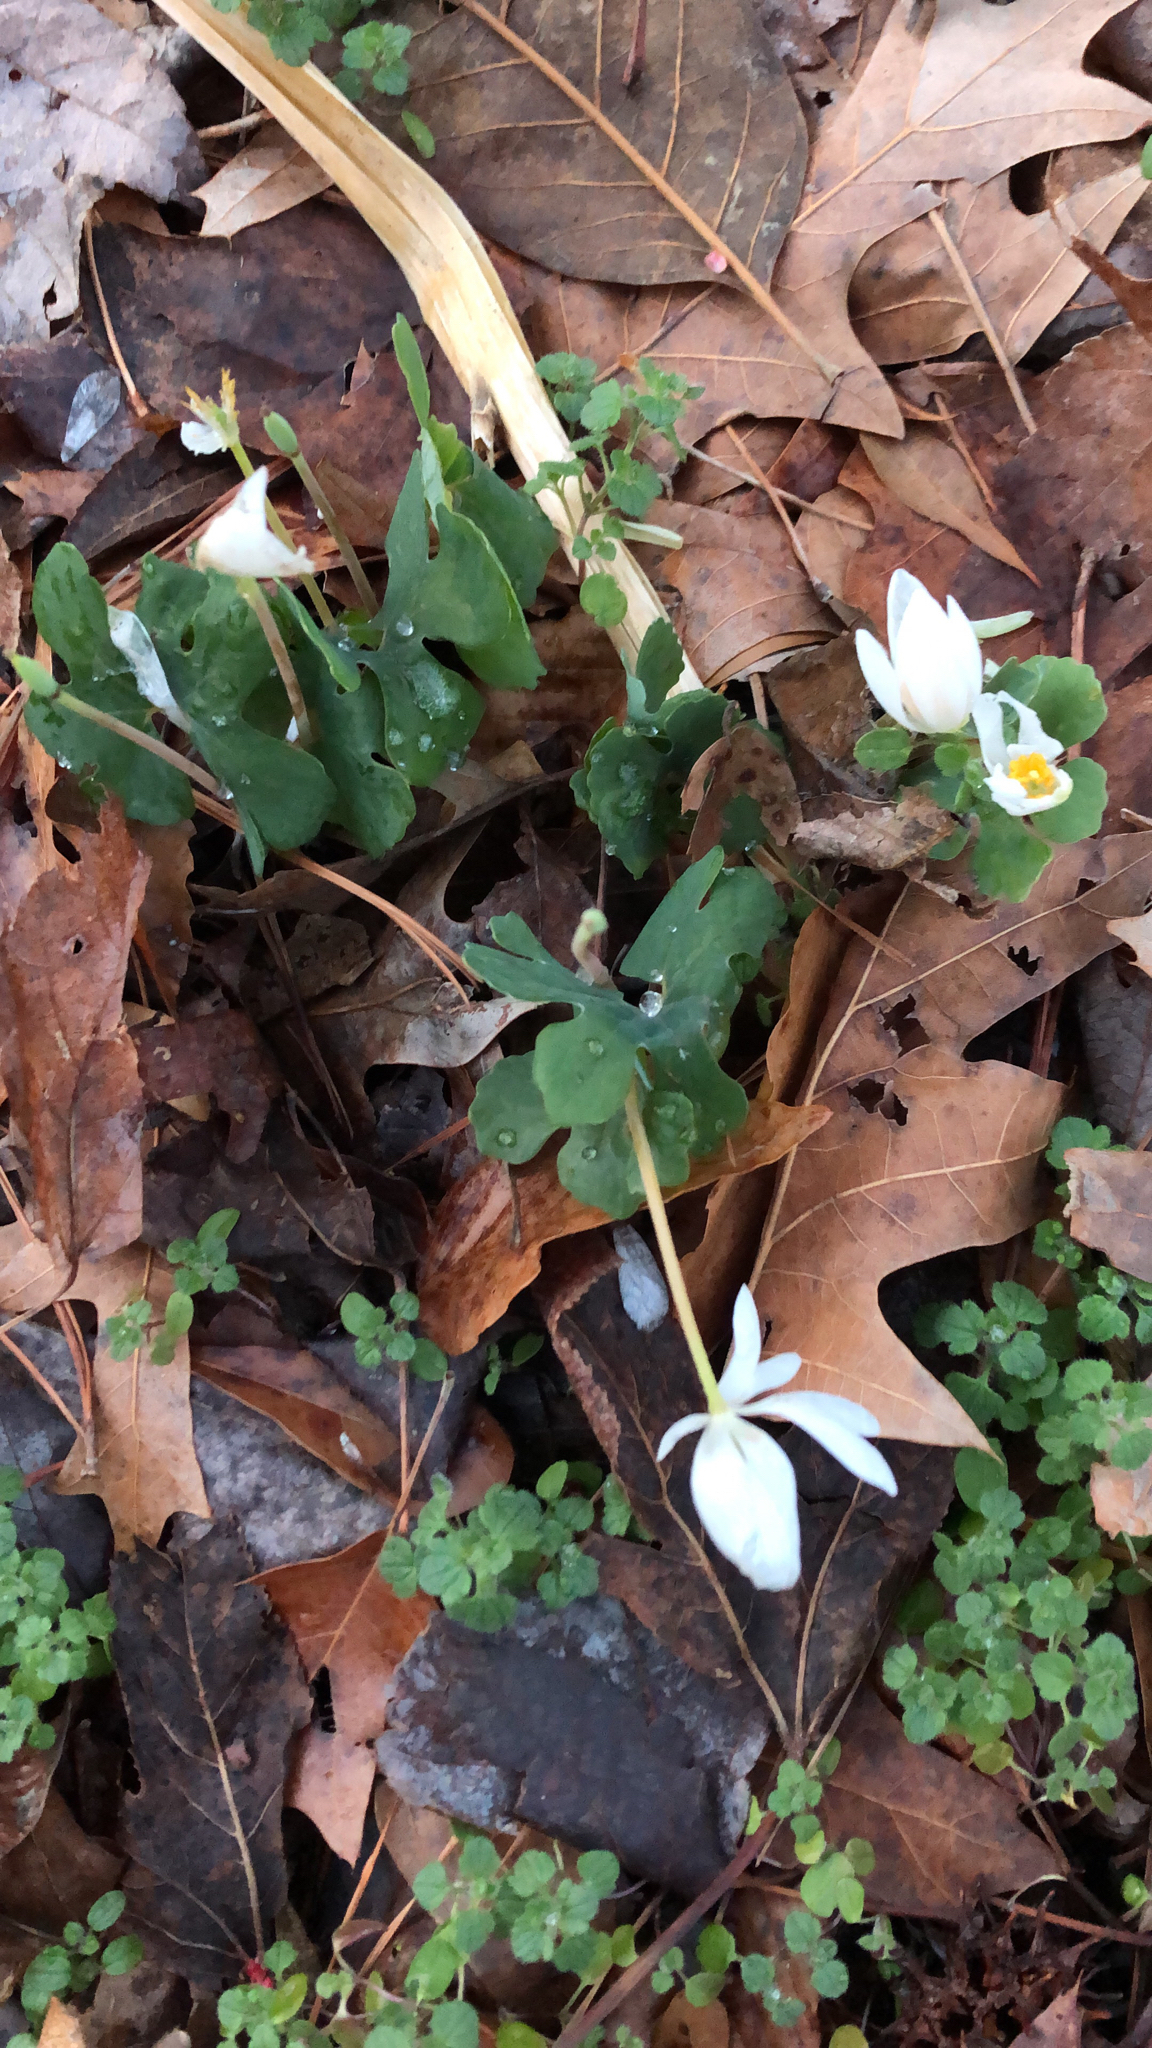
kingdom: Plantae
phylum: Tracheophyta
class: Magnoliopsida
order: Ranunculales
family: Papaveraceae
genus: Sanguinaria
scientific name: Sanguinaria canadensis
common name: Bloodroot
